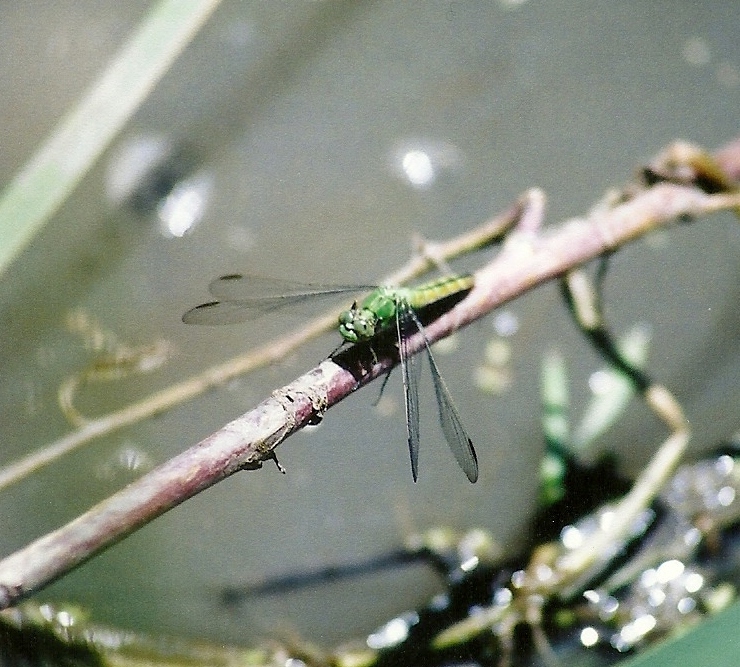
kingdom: Animalia
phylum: Arthropoda
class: Insecta
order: Odonata
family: Libellulidae
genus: Erythemis
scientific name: Erythemis collocata
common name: Western pondhawk
